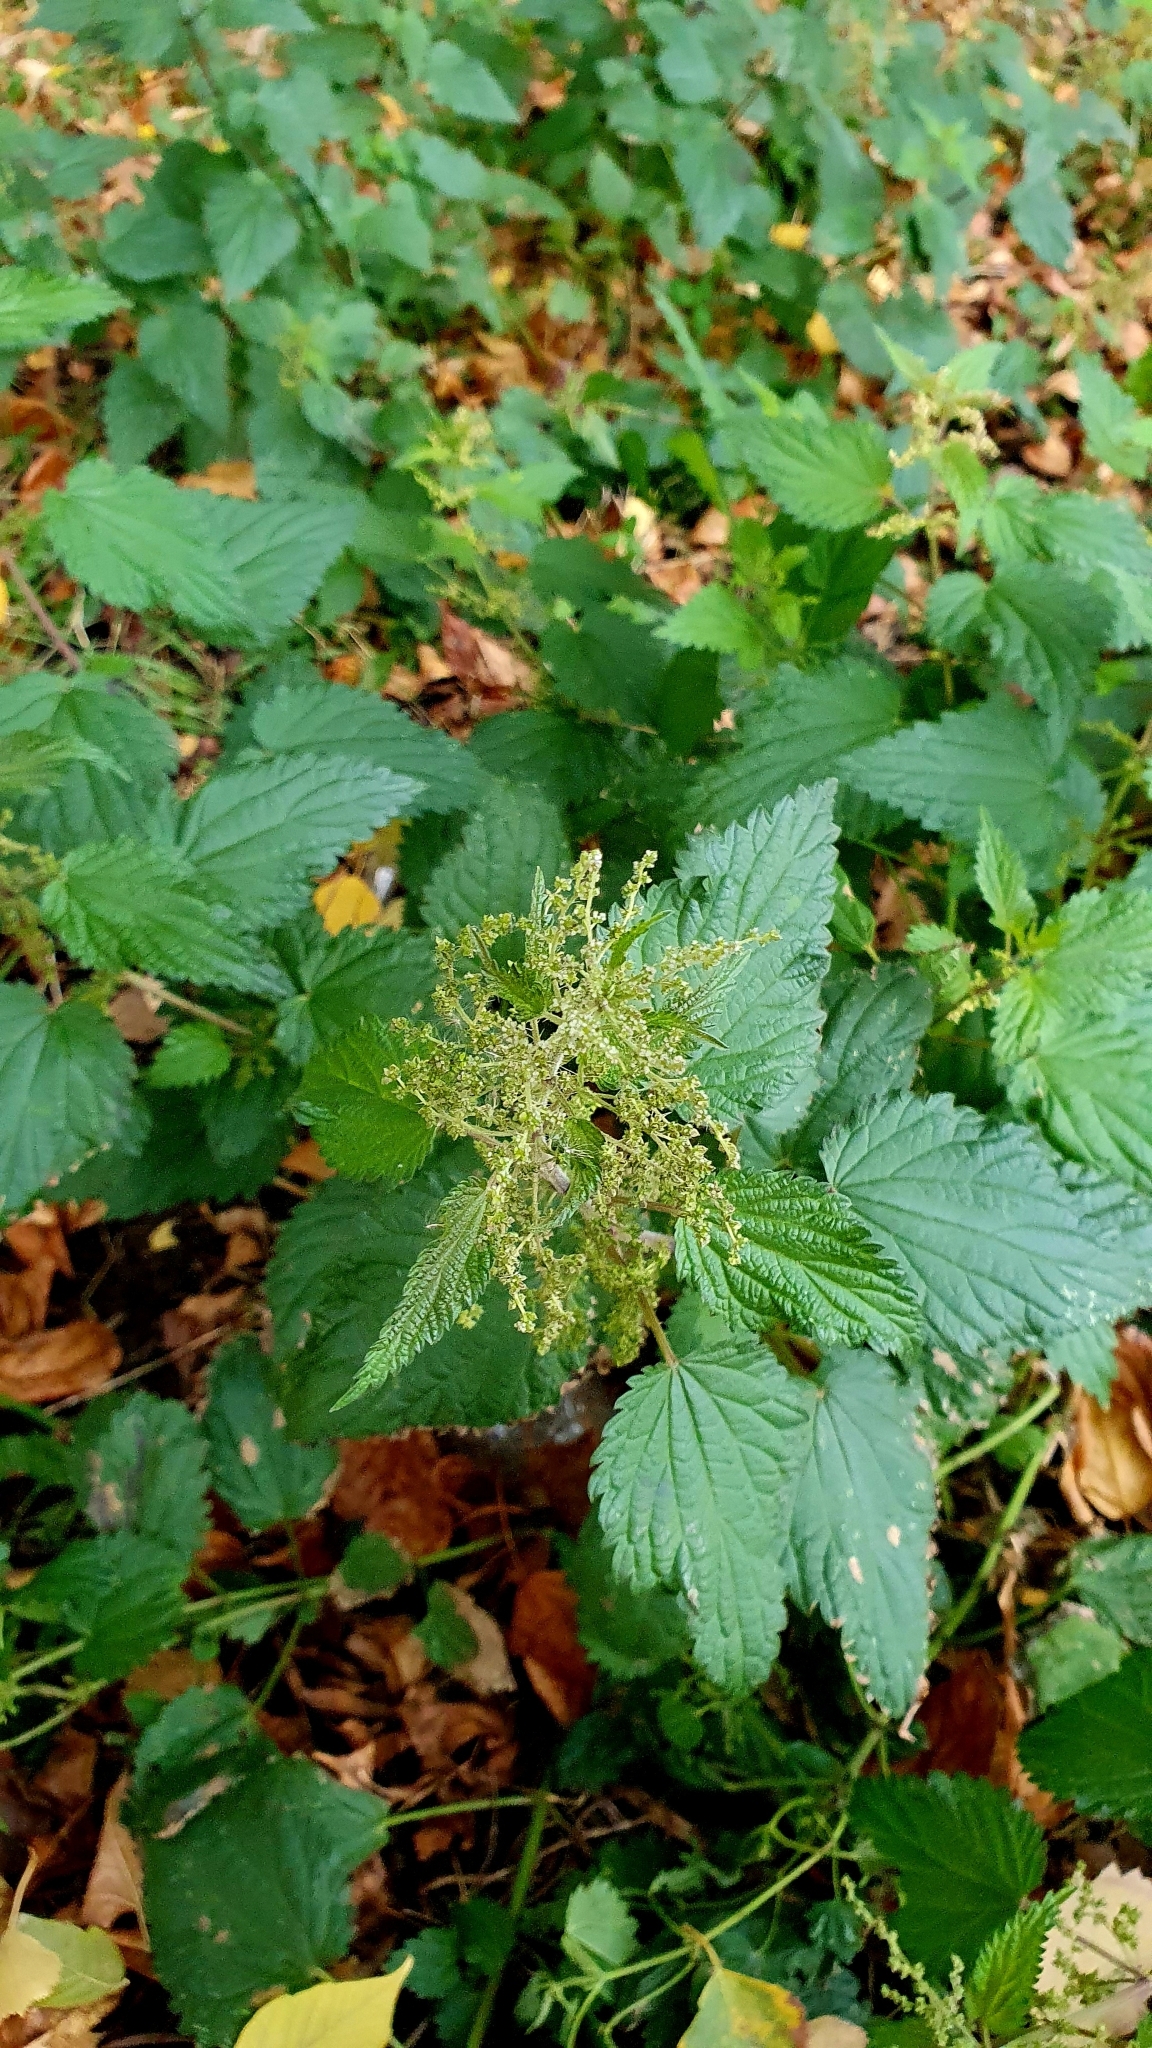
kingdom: Plantae
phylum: Tracheophyta
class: Magnoliopsida
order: Rosales
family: Urticaceae
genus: Urtica
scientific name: Urtica dioica
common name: Common nettle
